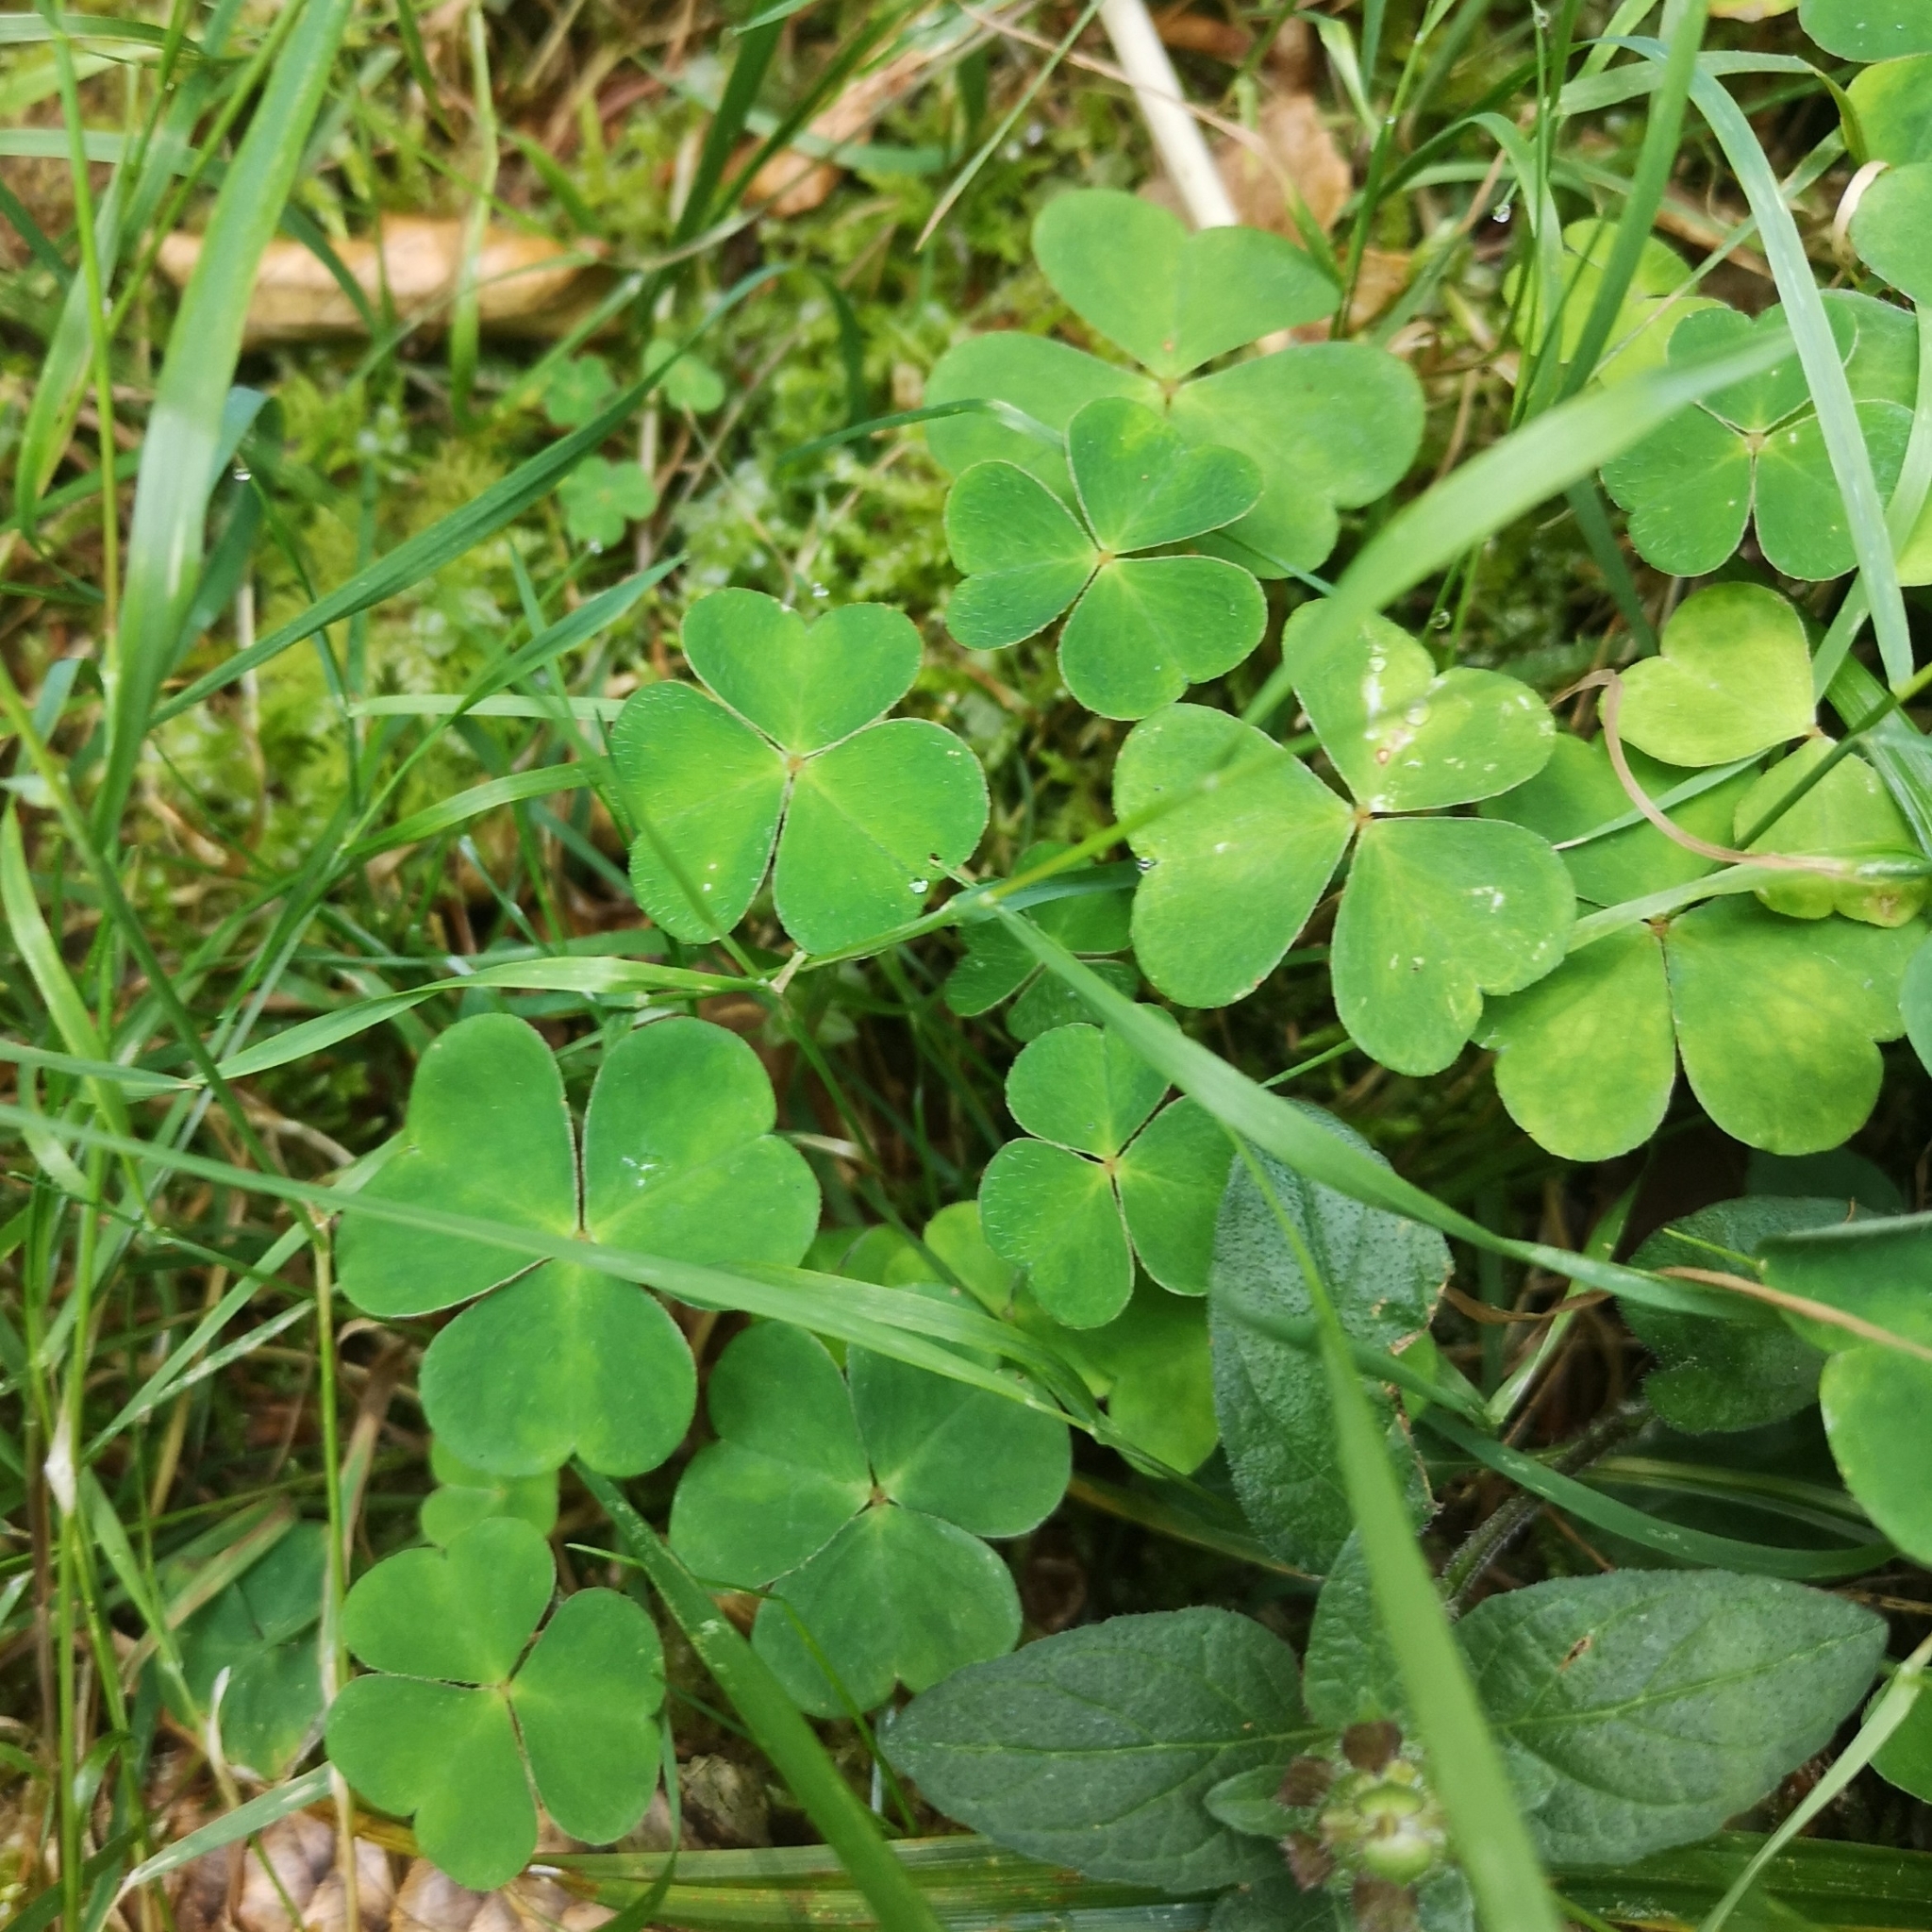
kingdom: Plantae
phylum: Tracheophyta
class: Magnoliopsida
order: Oxalidales
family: Oxalidaceae
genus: Oxalis
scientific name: Oxalis acetosella
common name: Wood-sorrel
